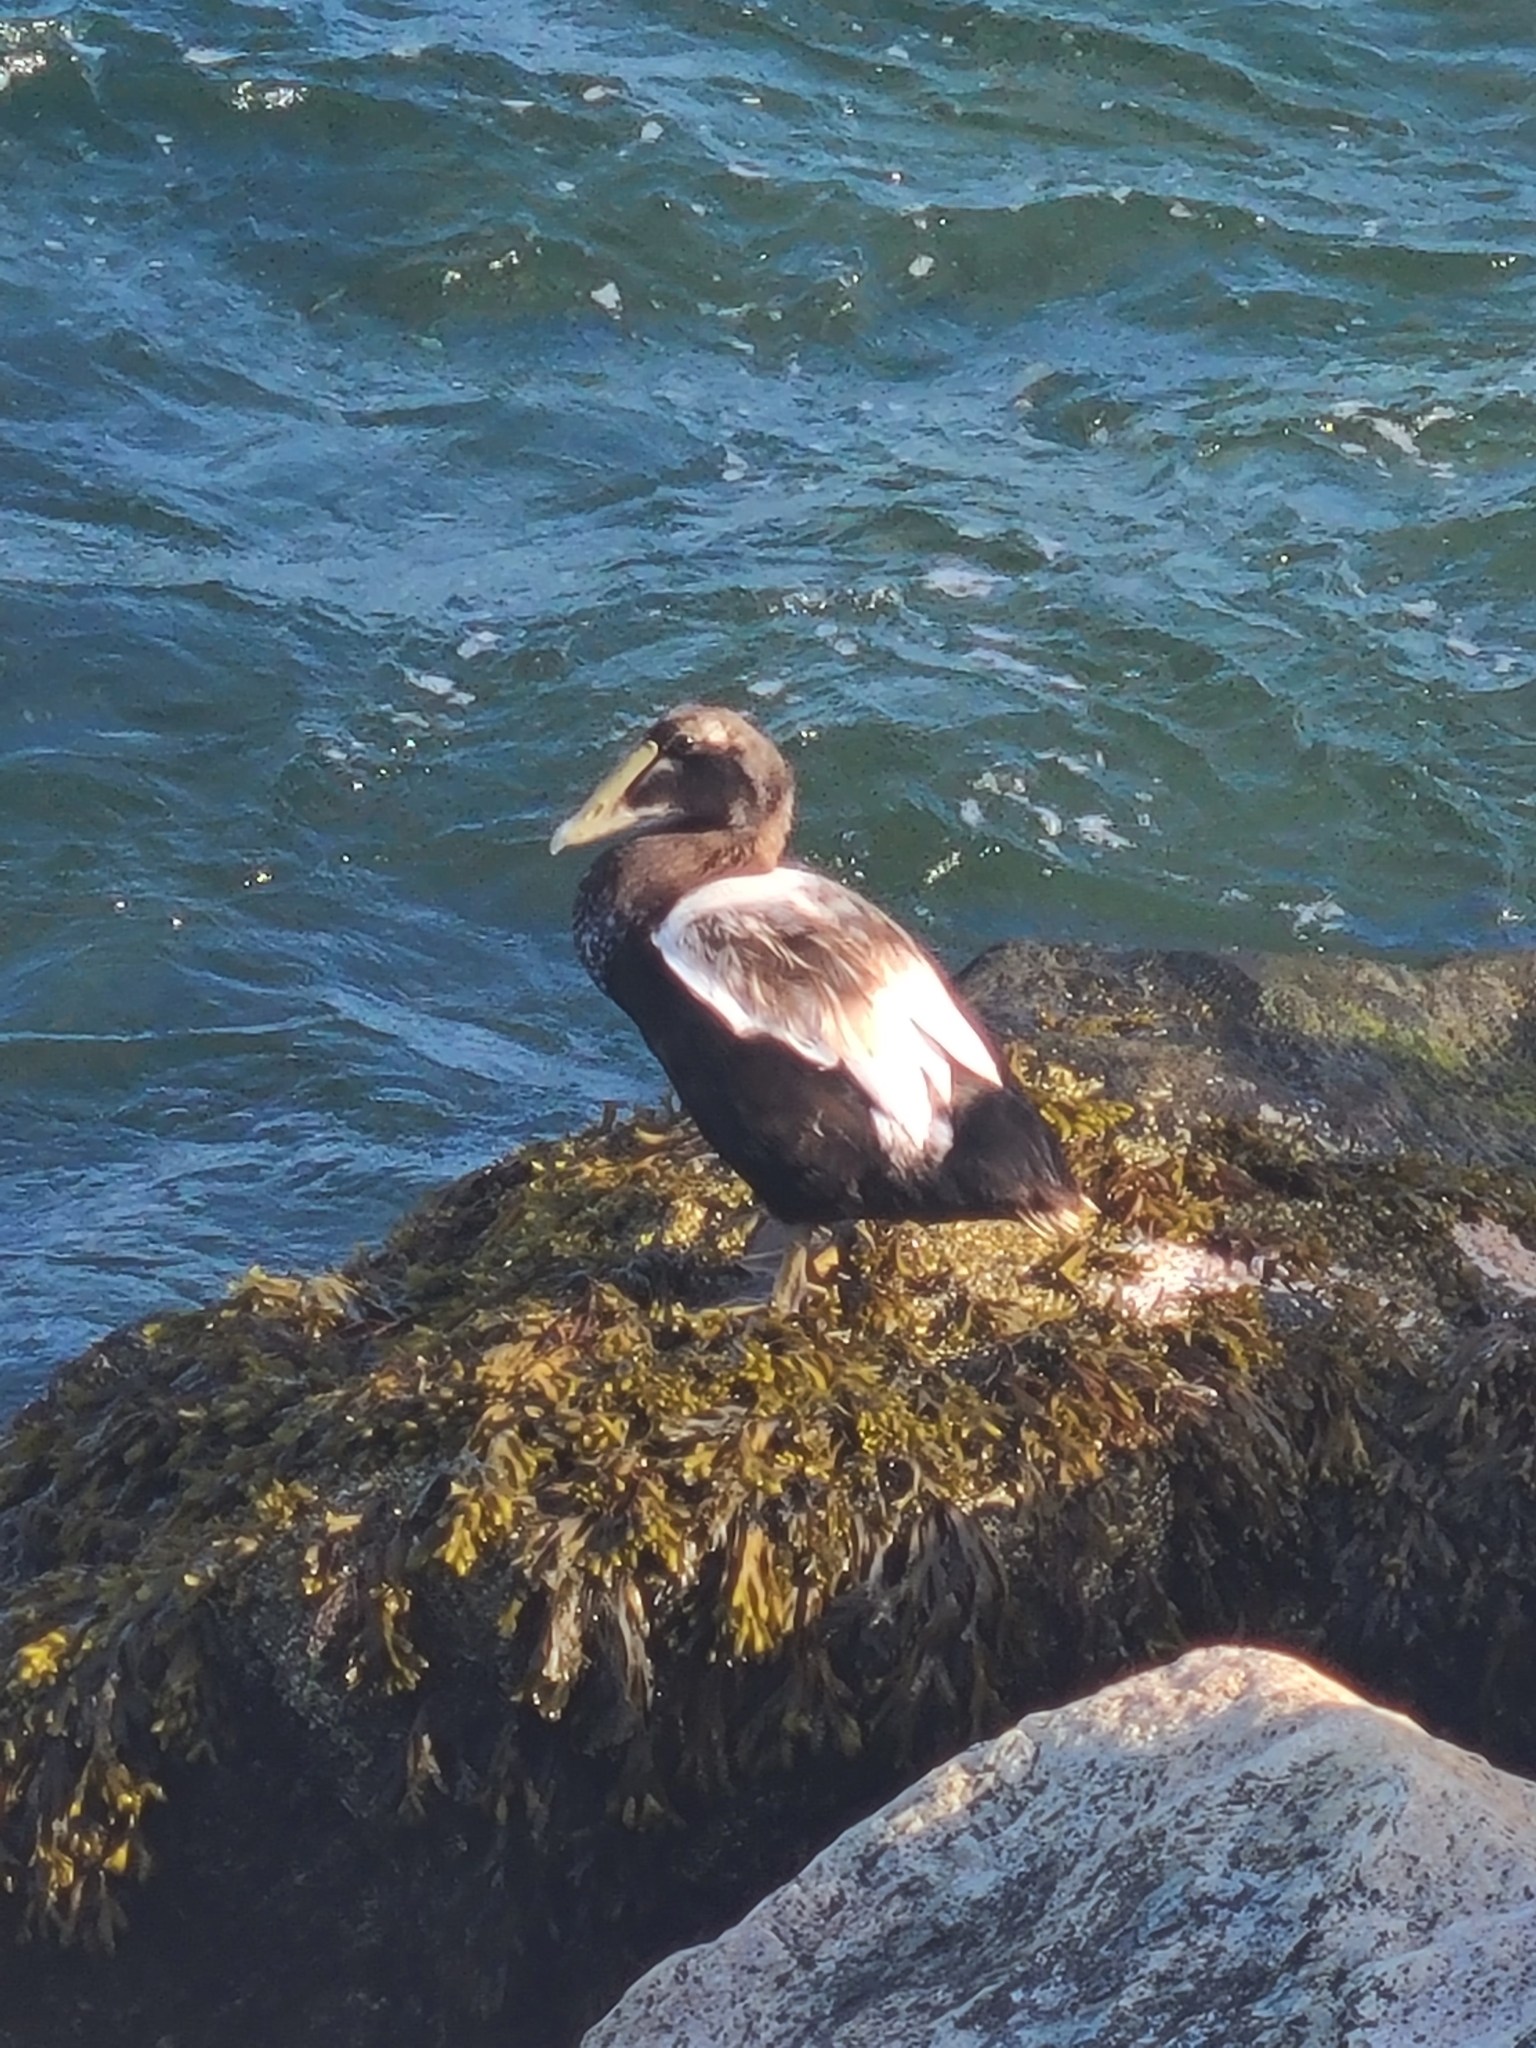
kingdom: Animalia
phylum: Chordata
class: Aves
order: Anseriformes
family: Anatidae
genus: Somateria
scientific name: Somateria mollissima
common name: Common eider
